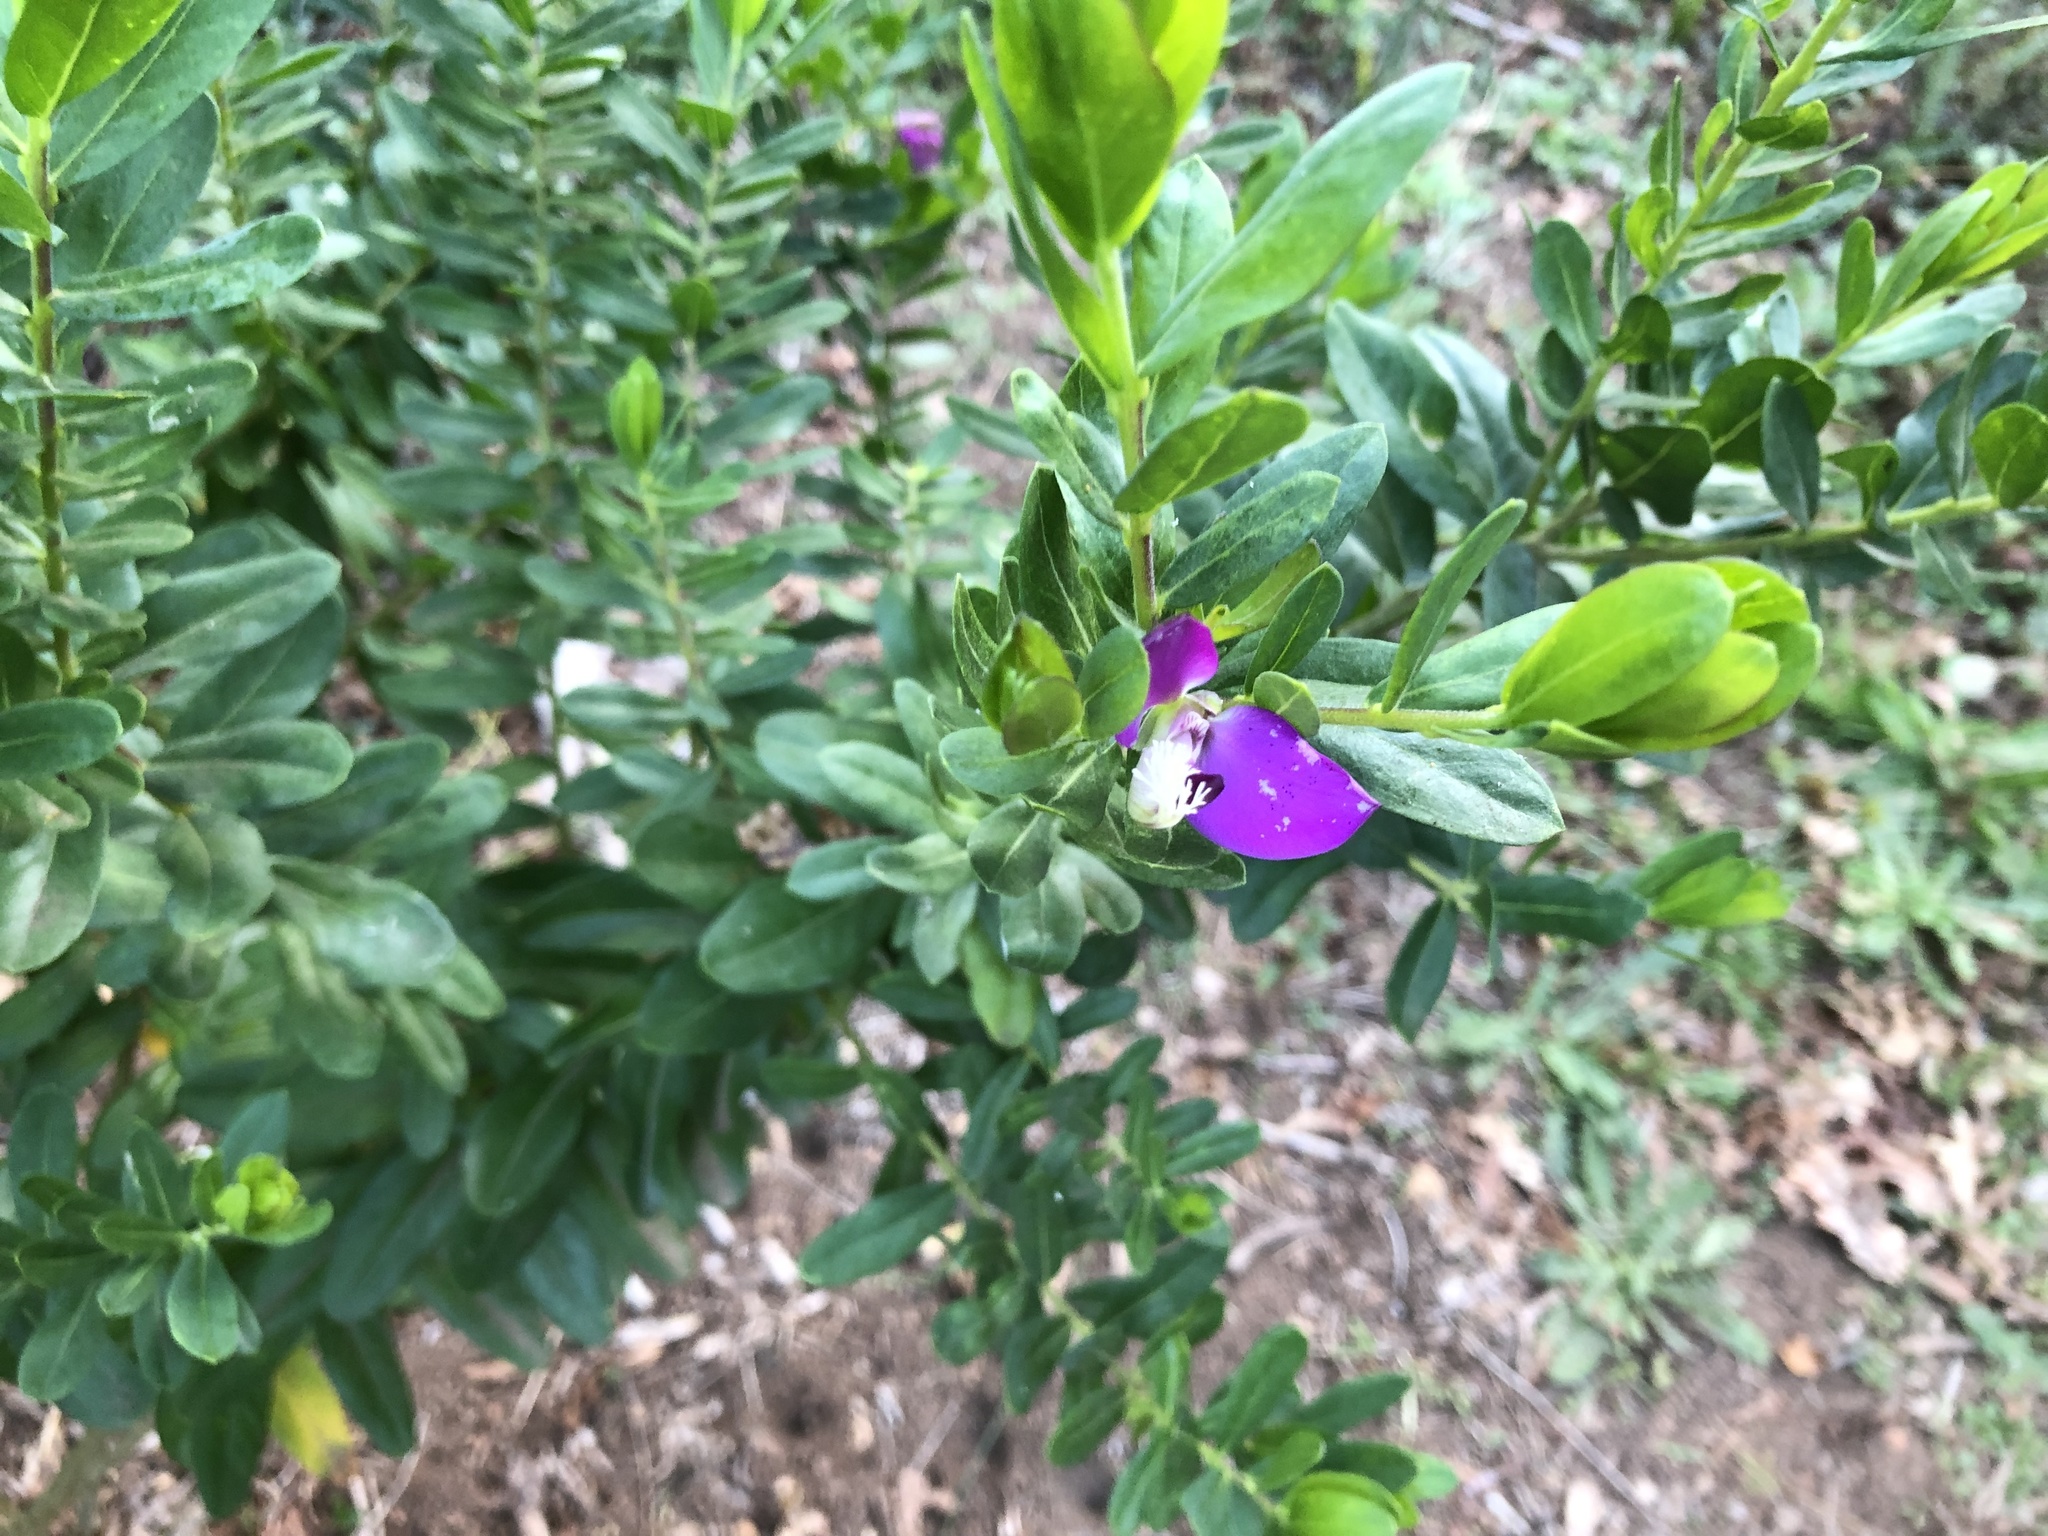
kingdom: Plantae
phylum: Tracheophyta
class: Magnoliopsida
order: Fabales
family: Polygalaceae
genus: Polygala
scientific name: Polygala myrtifolia
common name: Myrtle-leaf milkwort
